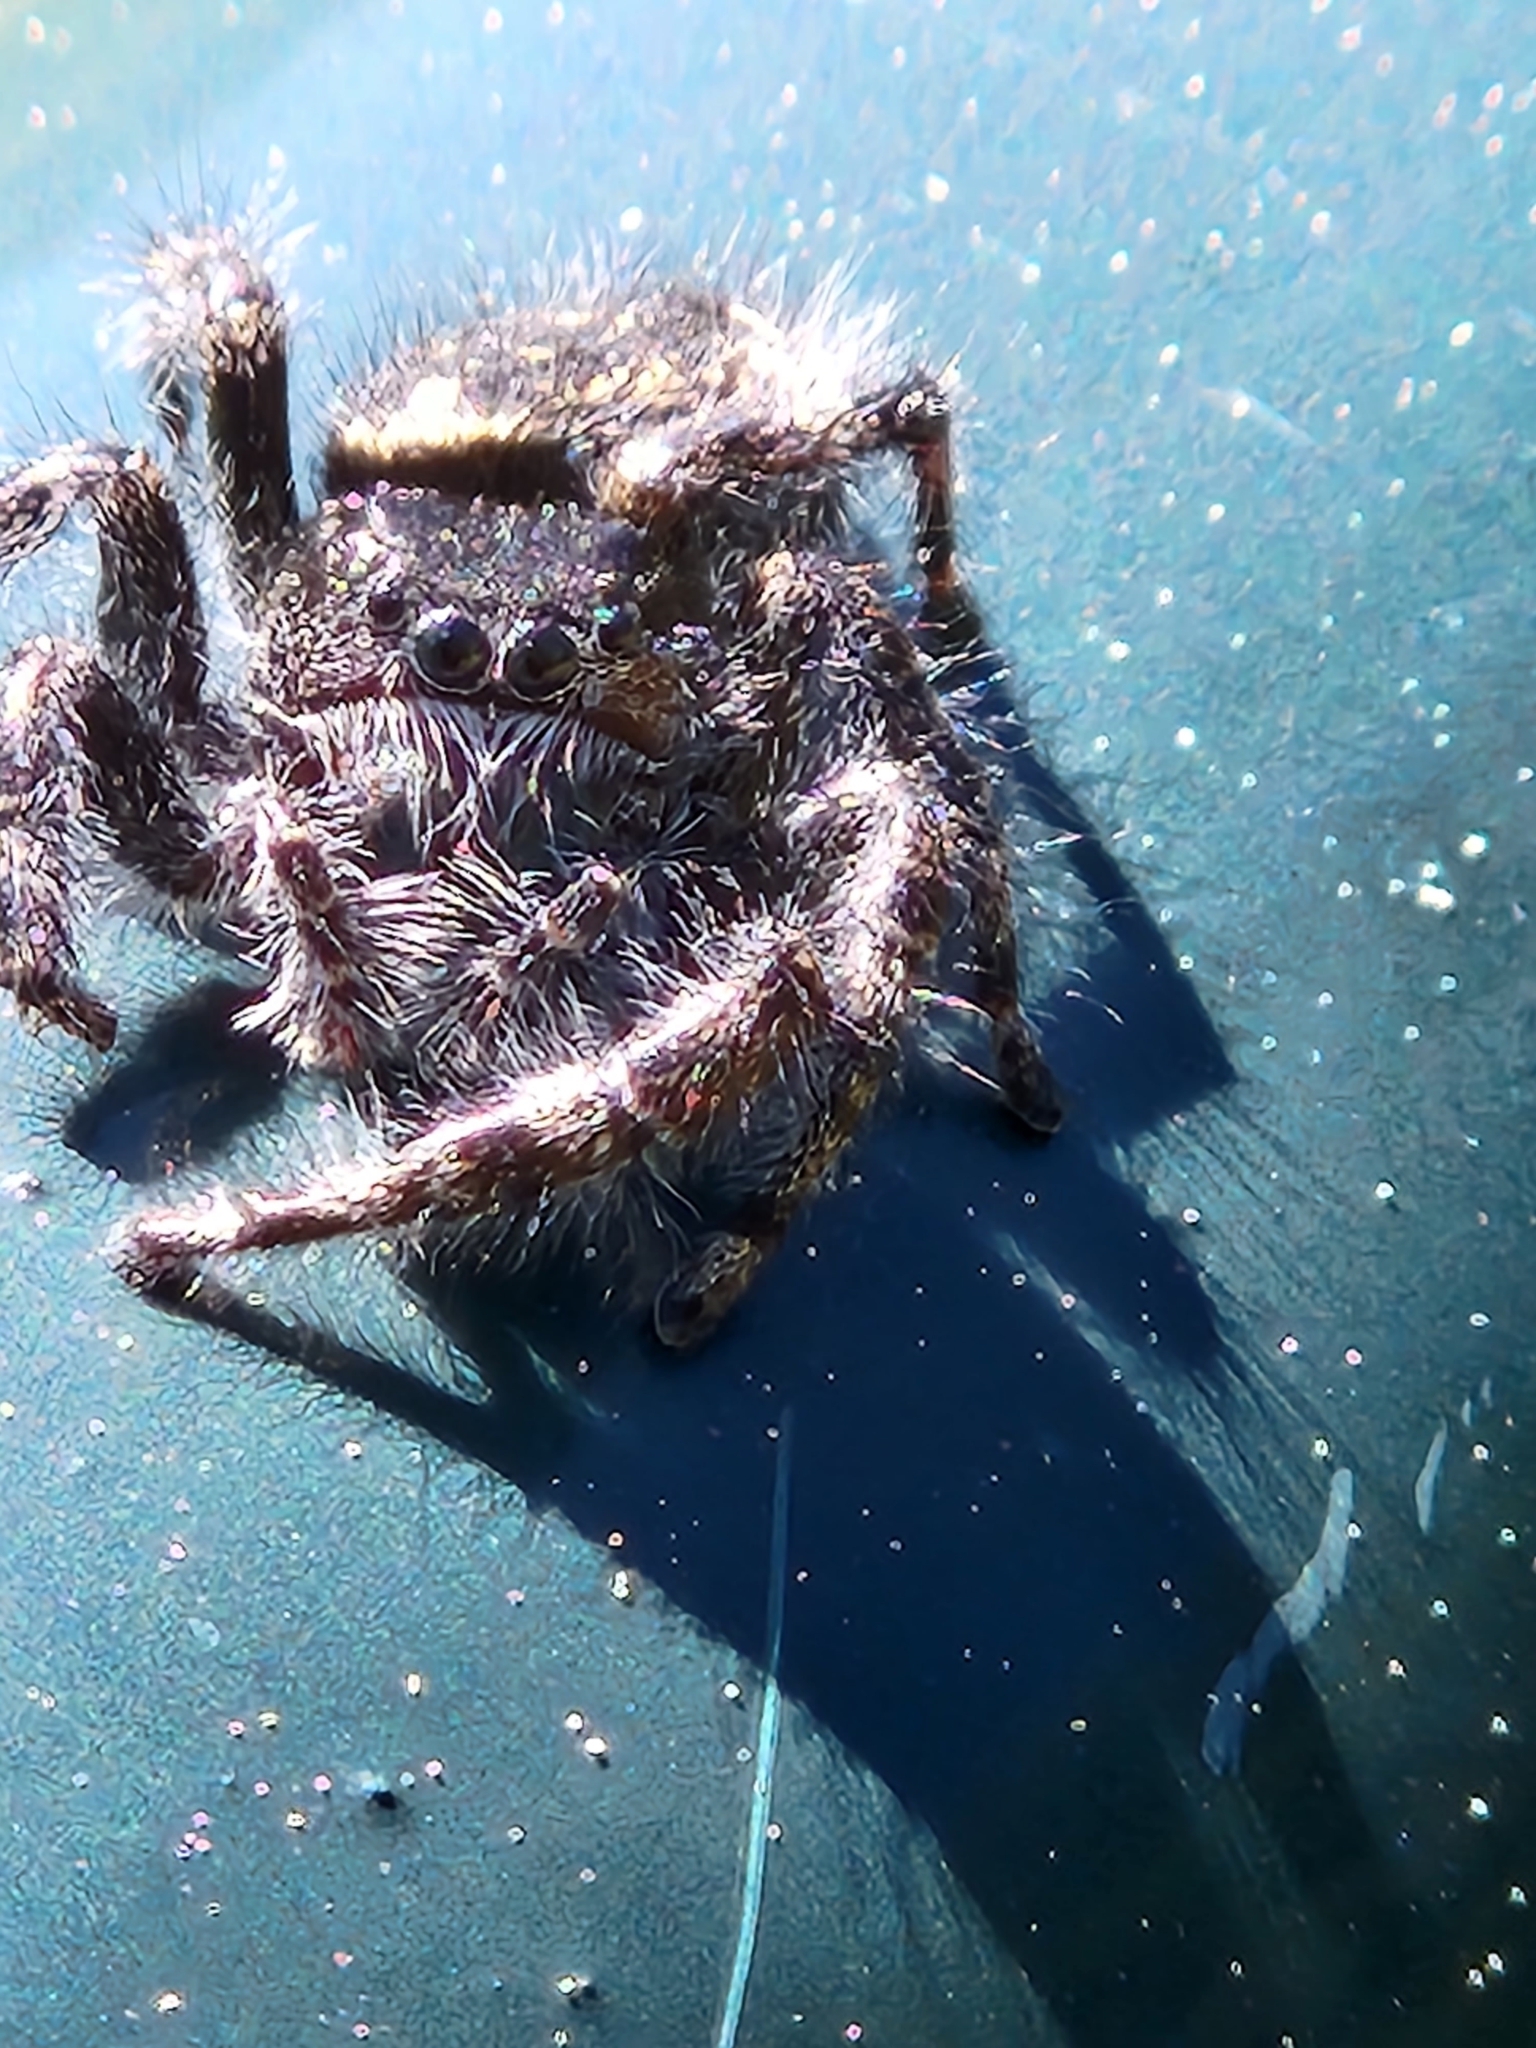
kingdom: Animalia
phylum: Arthropoda
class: Arachnida
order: Araneae
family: Salticidae
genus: Phidippus
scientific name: Phidippus borealis
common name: Boreal tufted jumping spider
